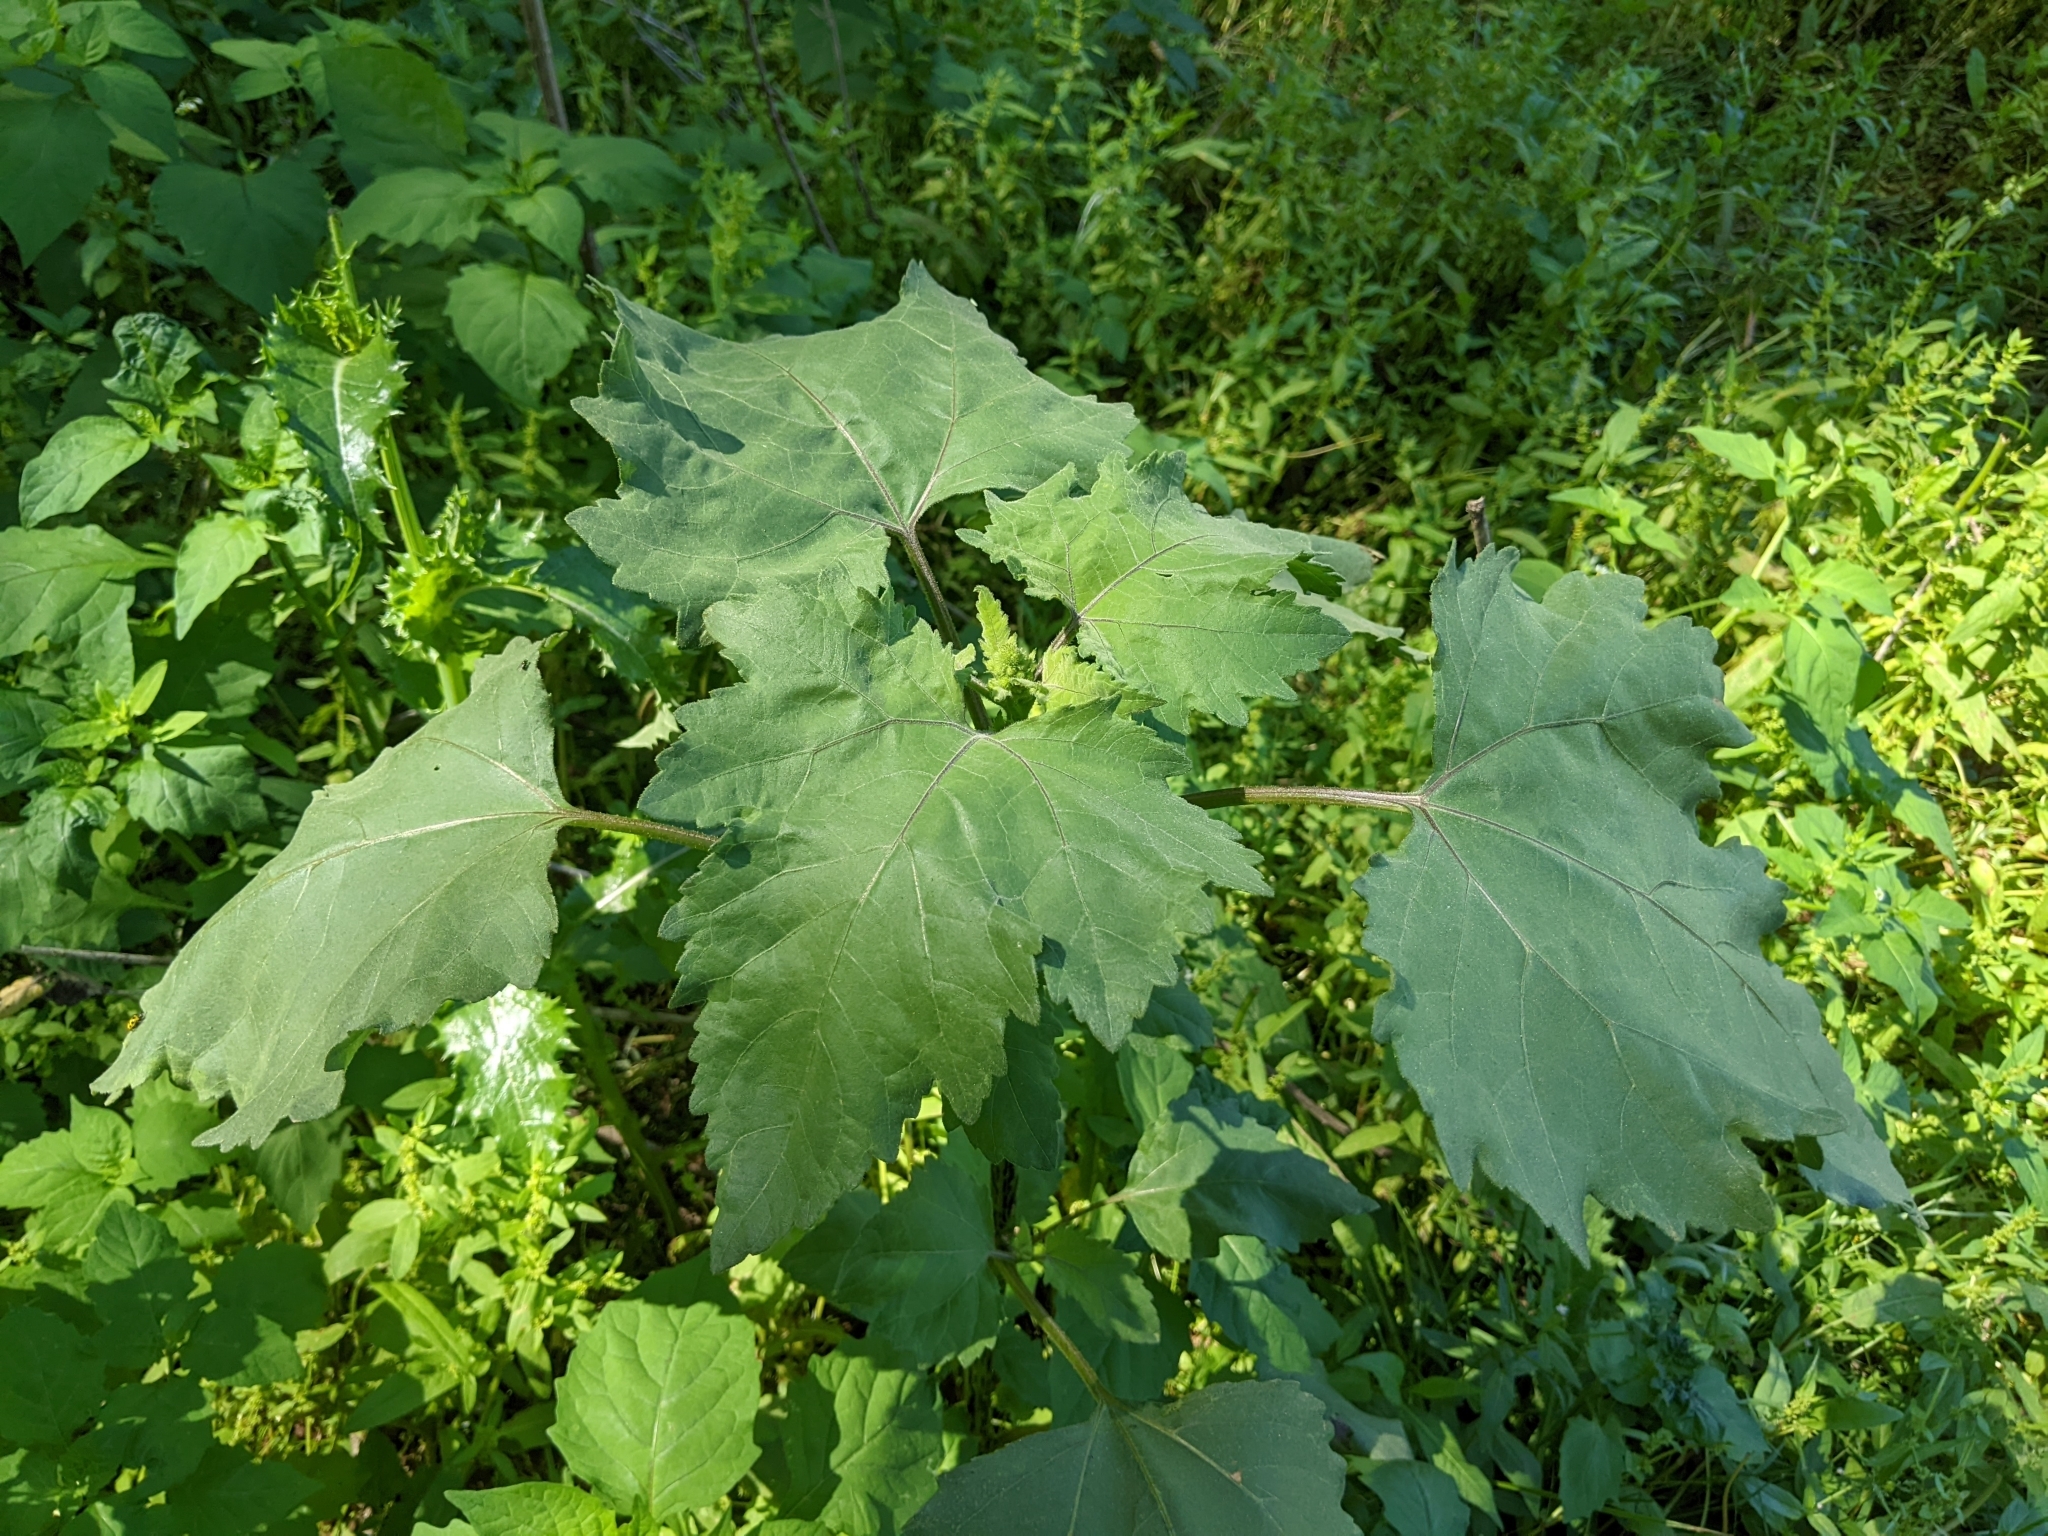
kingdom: Plantae
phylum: Tracheophyta
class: Magnoliopsida
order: Asterales
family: Asteraceae
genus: Xanthium
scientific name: Xanthium strumarium
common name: Rough cocklebur
